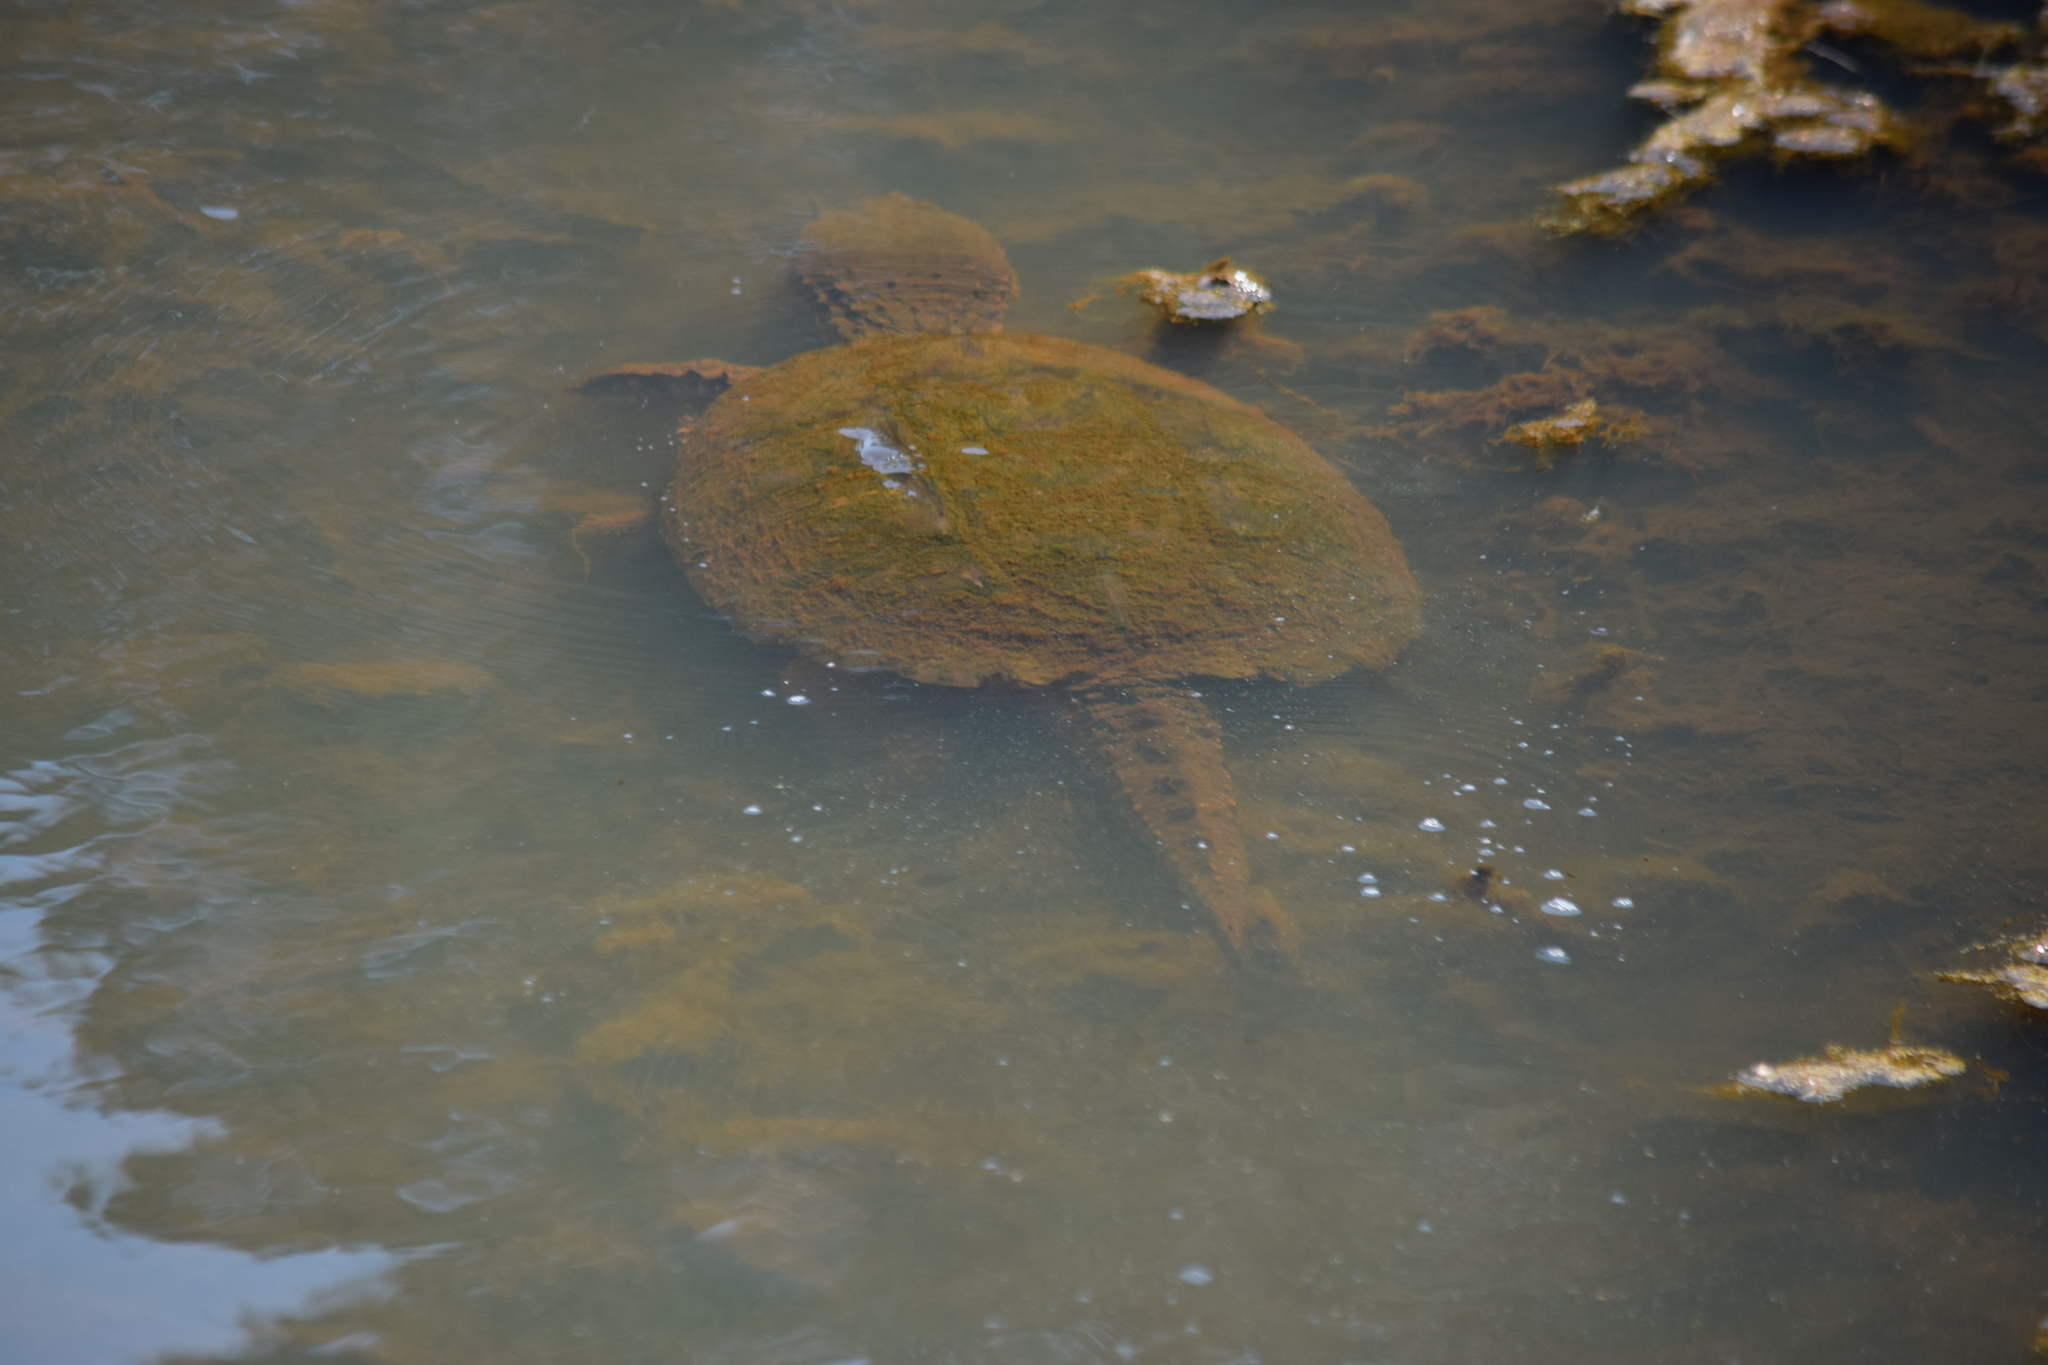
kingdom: Animalia
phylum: Chordata
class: Testudines
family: Chelydridae
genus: Chelydra
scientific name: Chelydra serpentina
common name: Common snapping turtle
